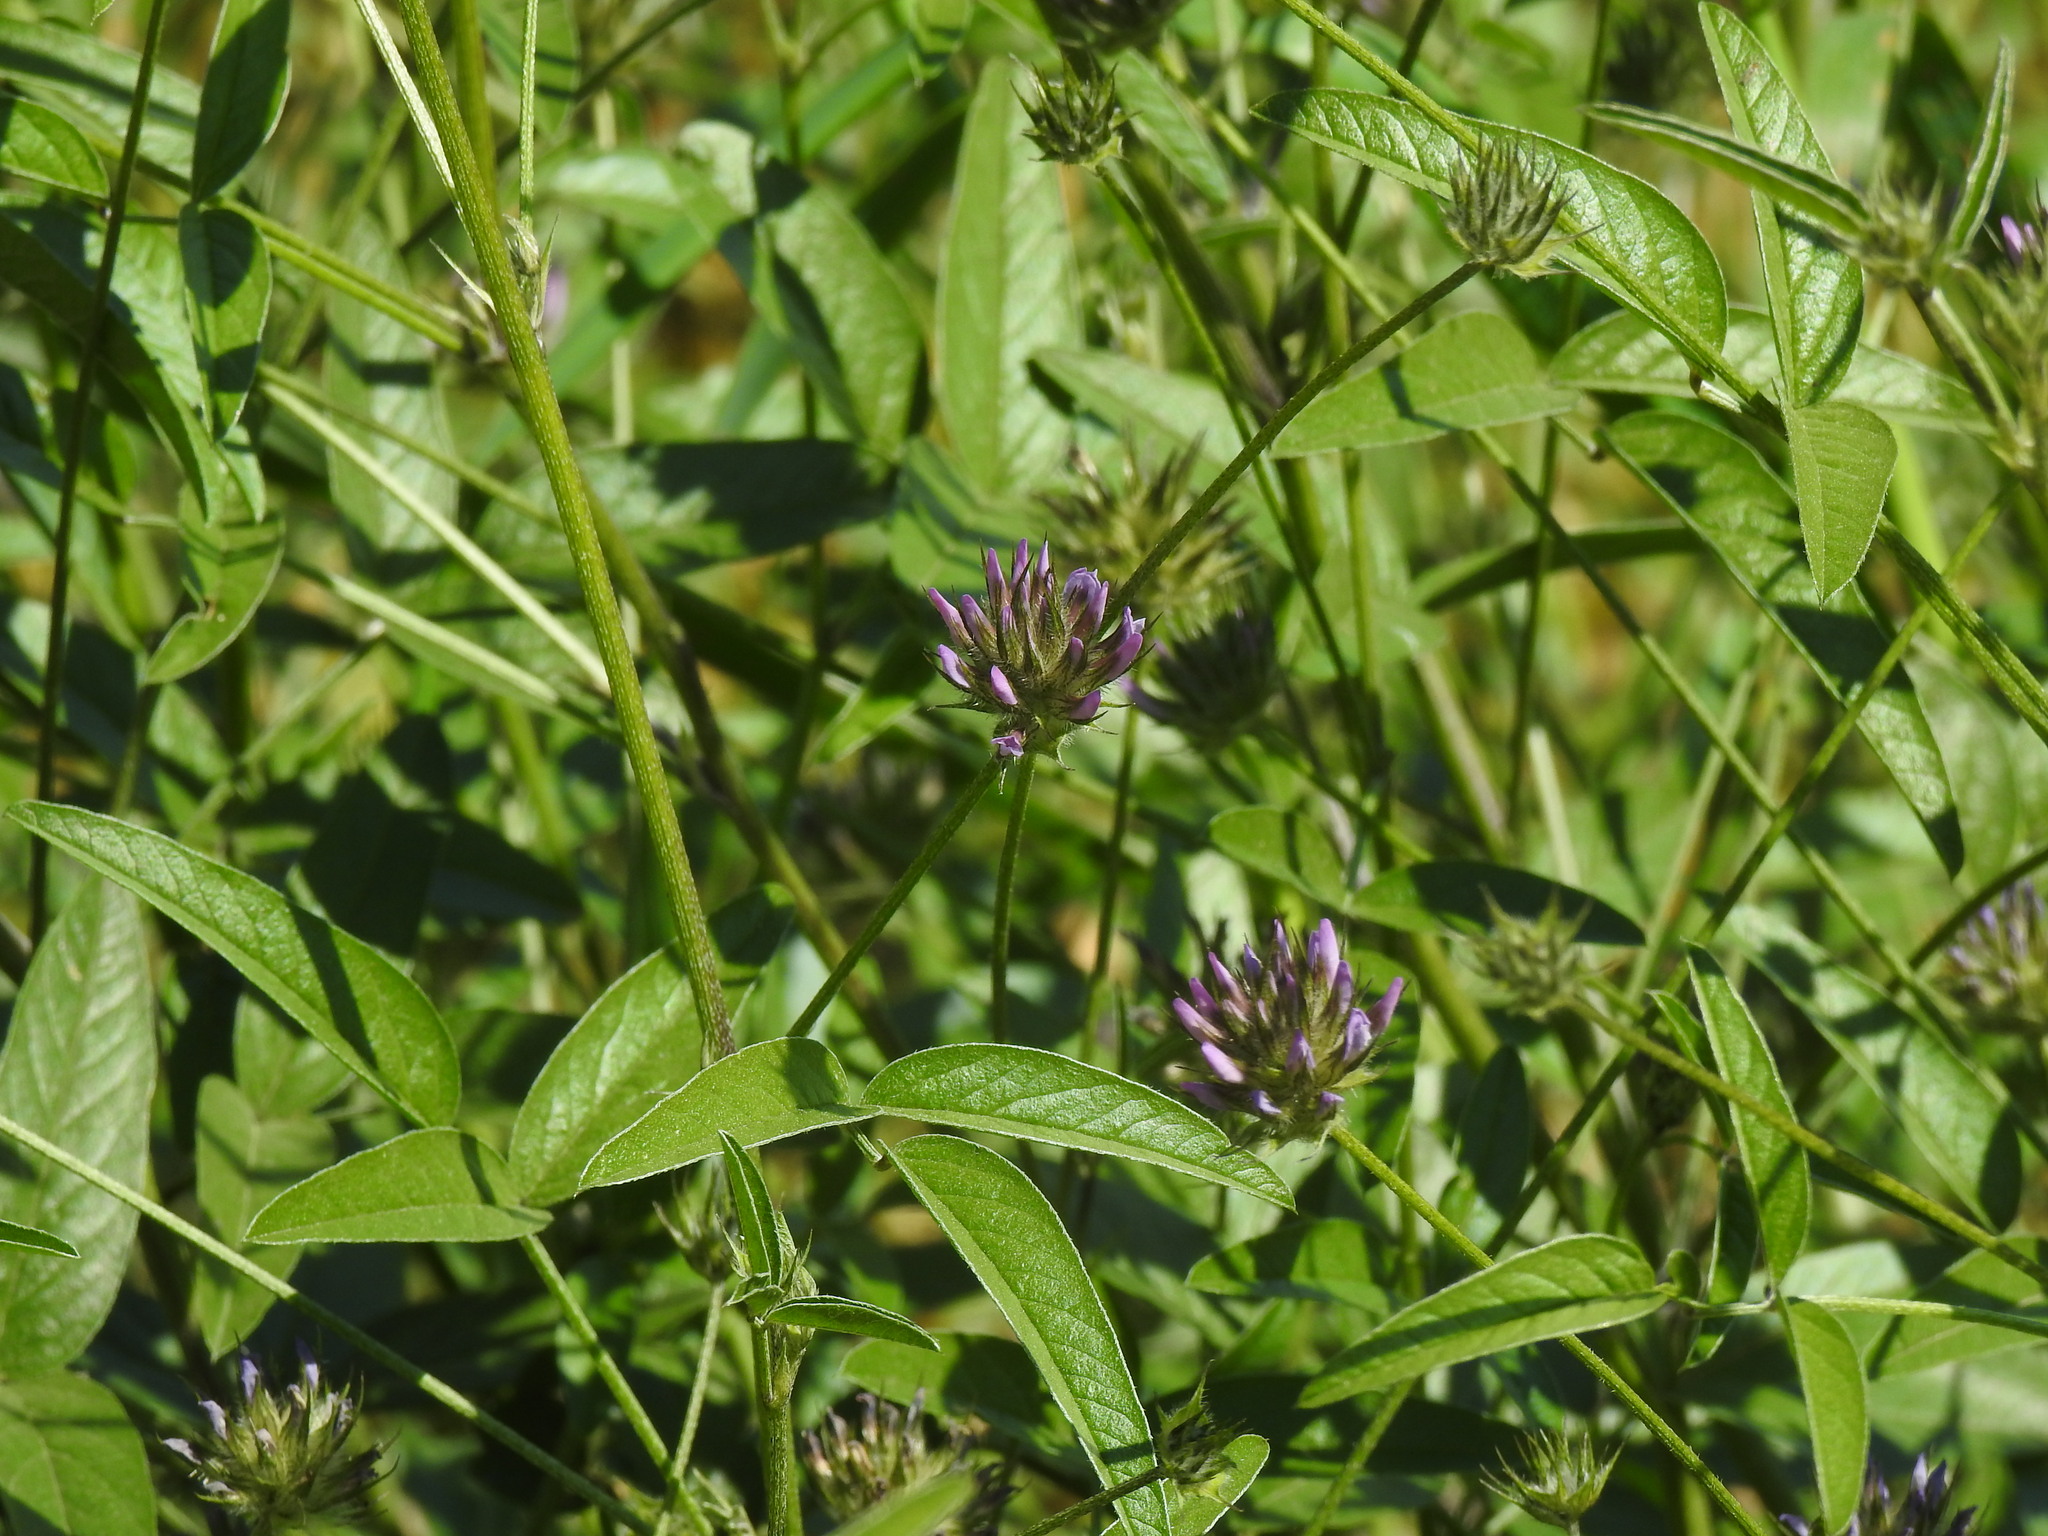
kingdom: Plantae
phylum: Tracheophyta
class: Magnoliopsida
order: Fabales
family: Fabaceae
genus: Bituminaria
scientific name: Bituminaria bituminosa
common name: Arabian pea
